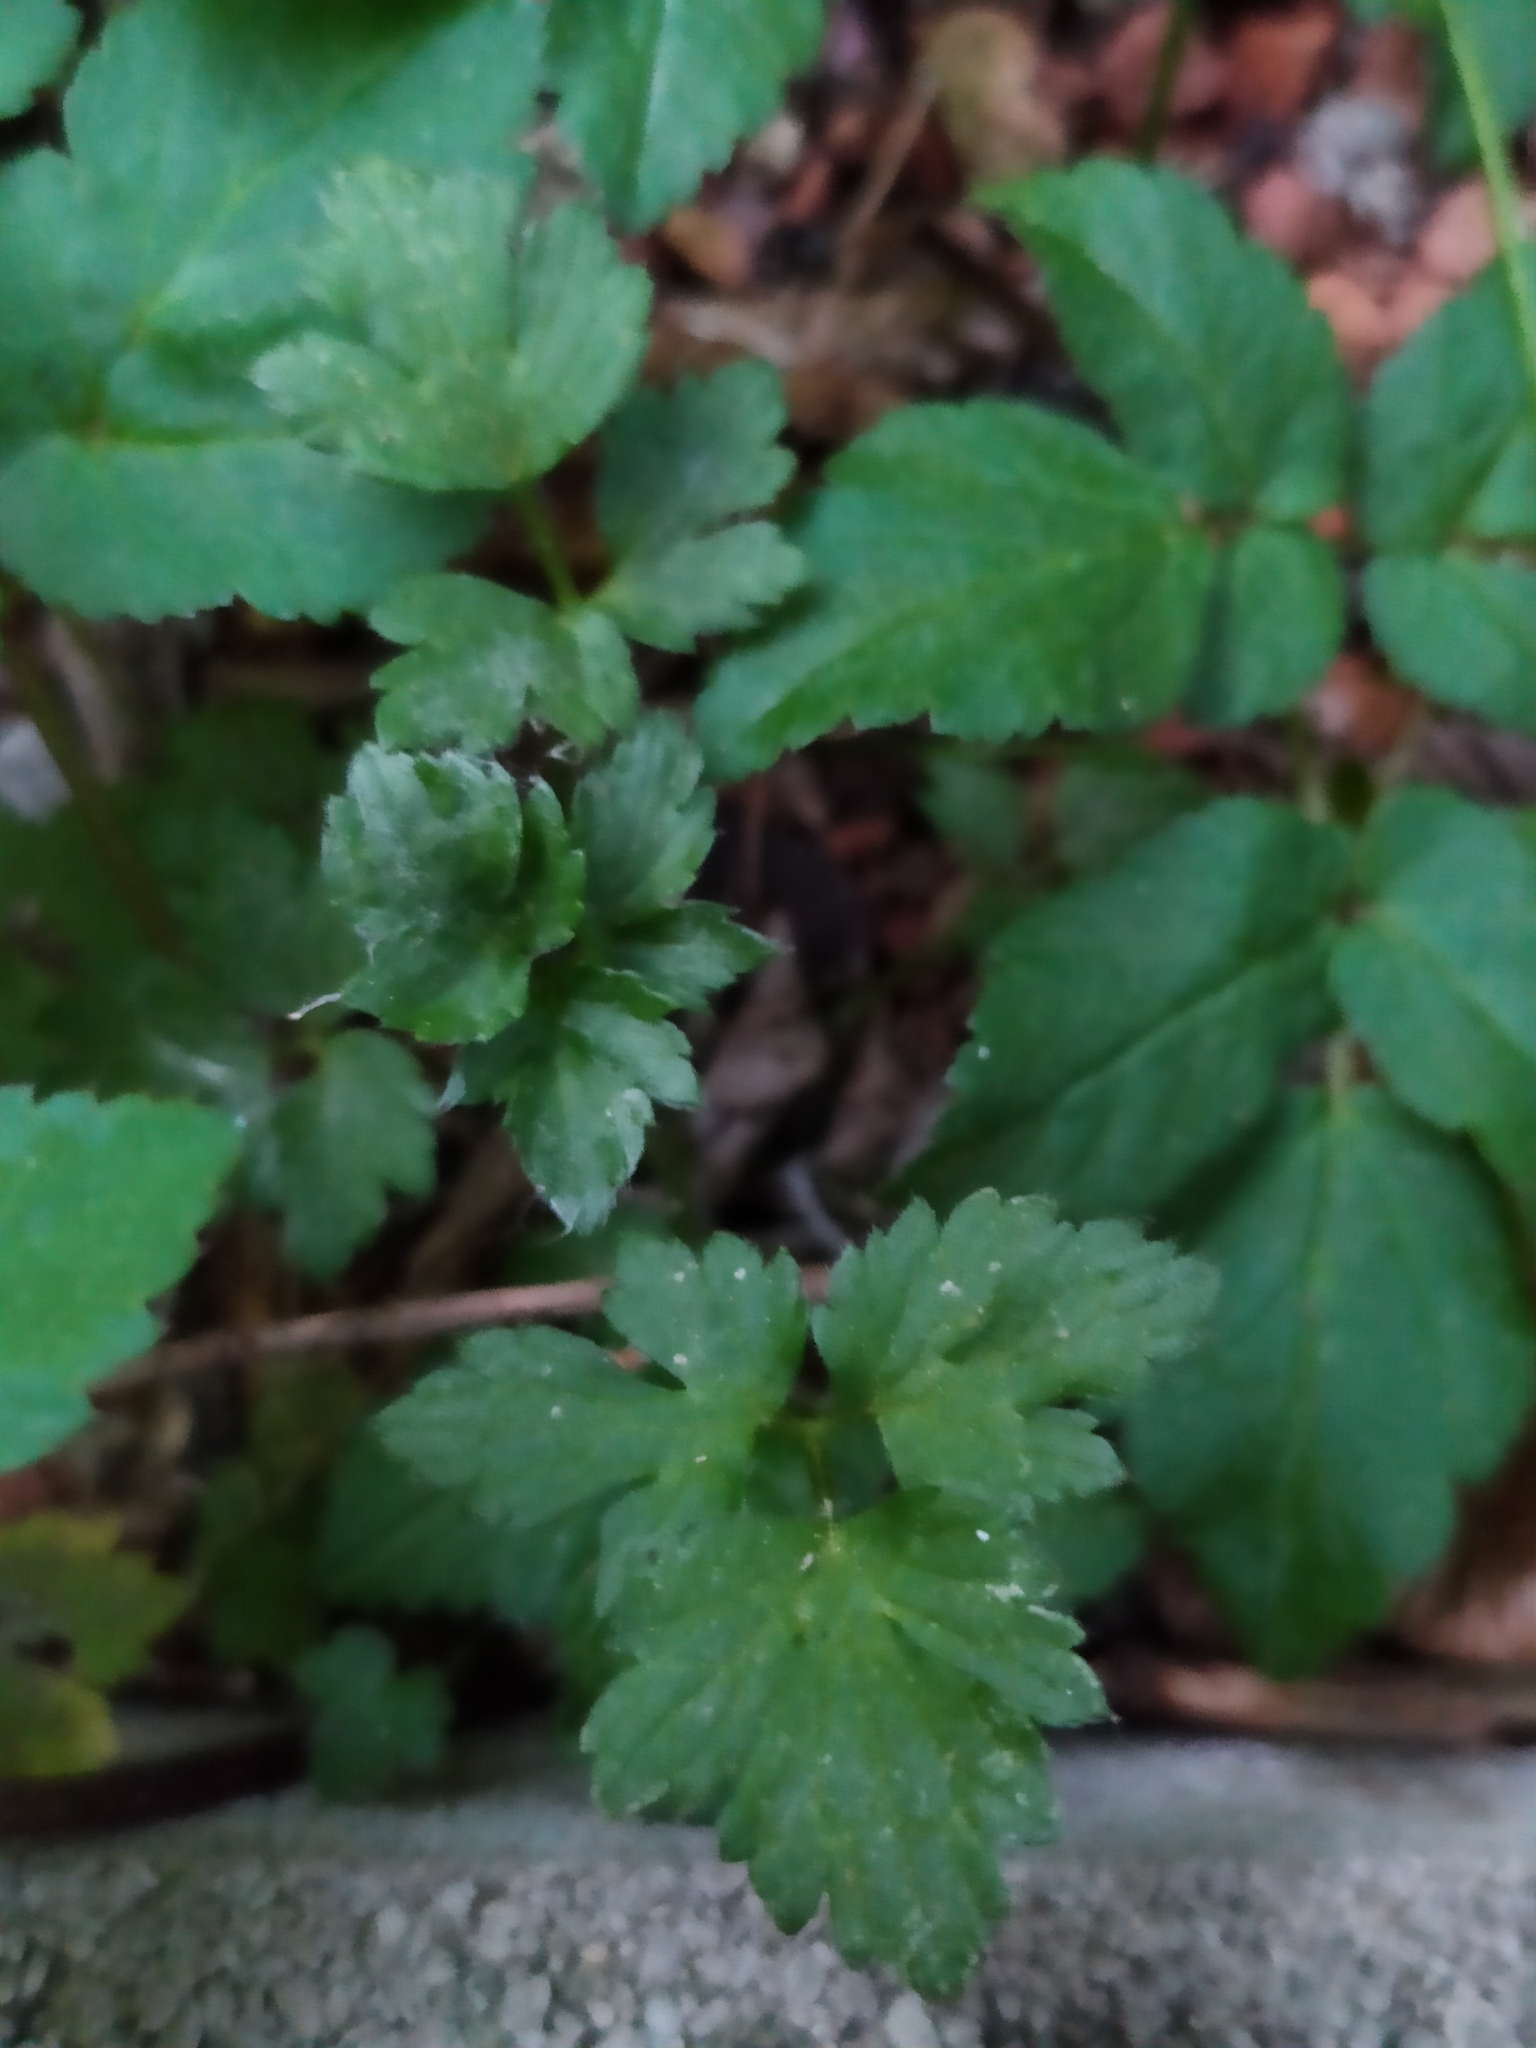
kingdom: Plantae
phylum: Tracheophyta
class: Magnoliopsida
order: Ranunculales
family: Ranunculaceae
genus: Ranunculus
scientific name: Ranunculus repens
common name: Creeping buttercup
